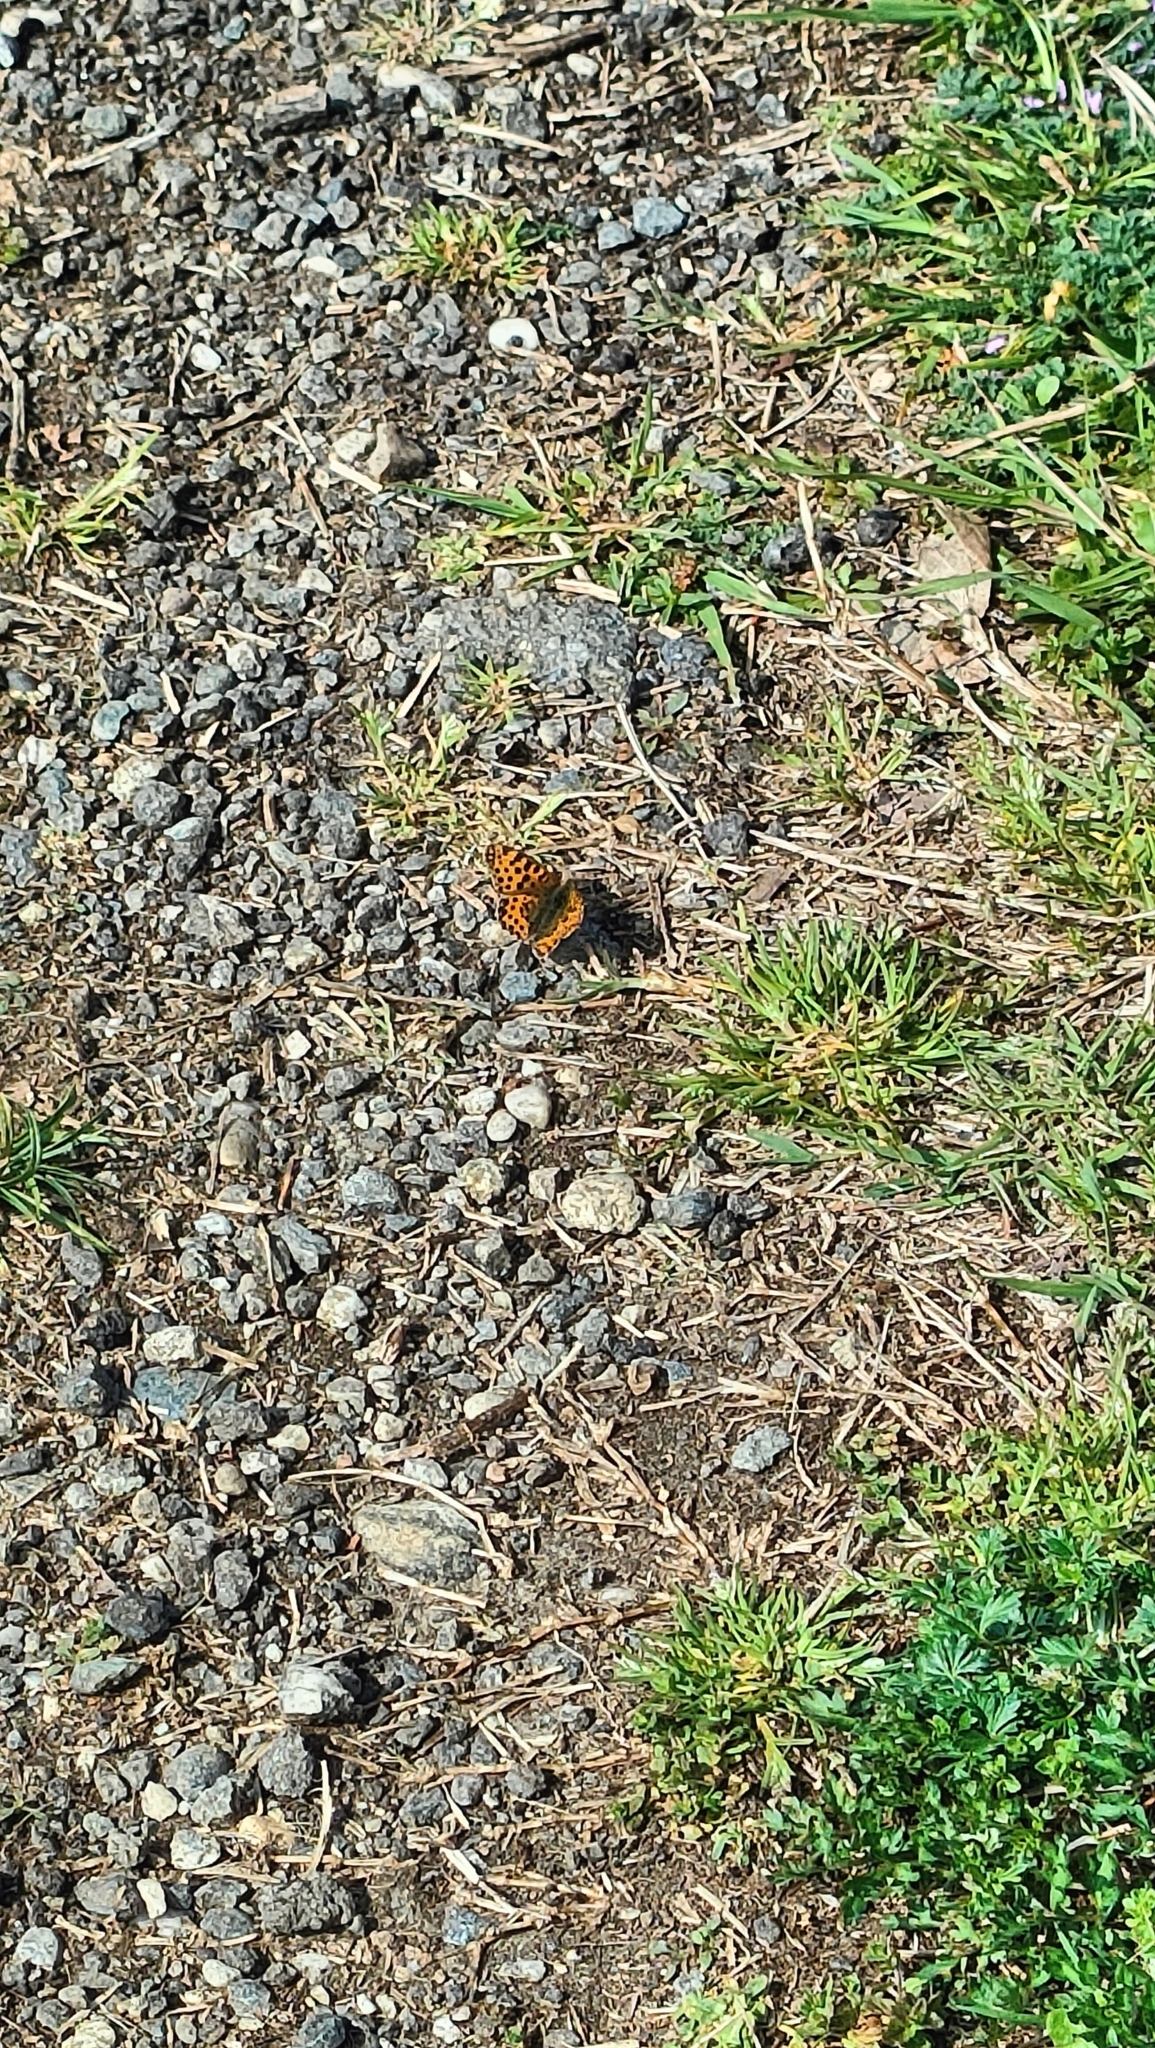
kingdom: Animalia
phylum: Arthropoda
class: Insecta
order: Lepidoptera
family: Nymphalidae
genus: Issoria
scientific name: Issoria lathonia
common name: Queen of spain fritillary
